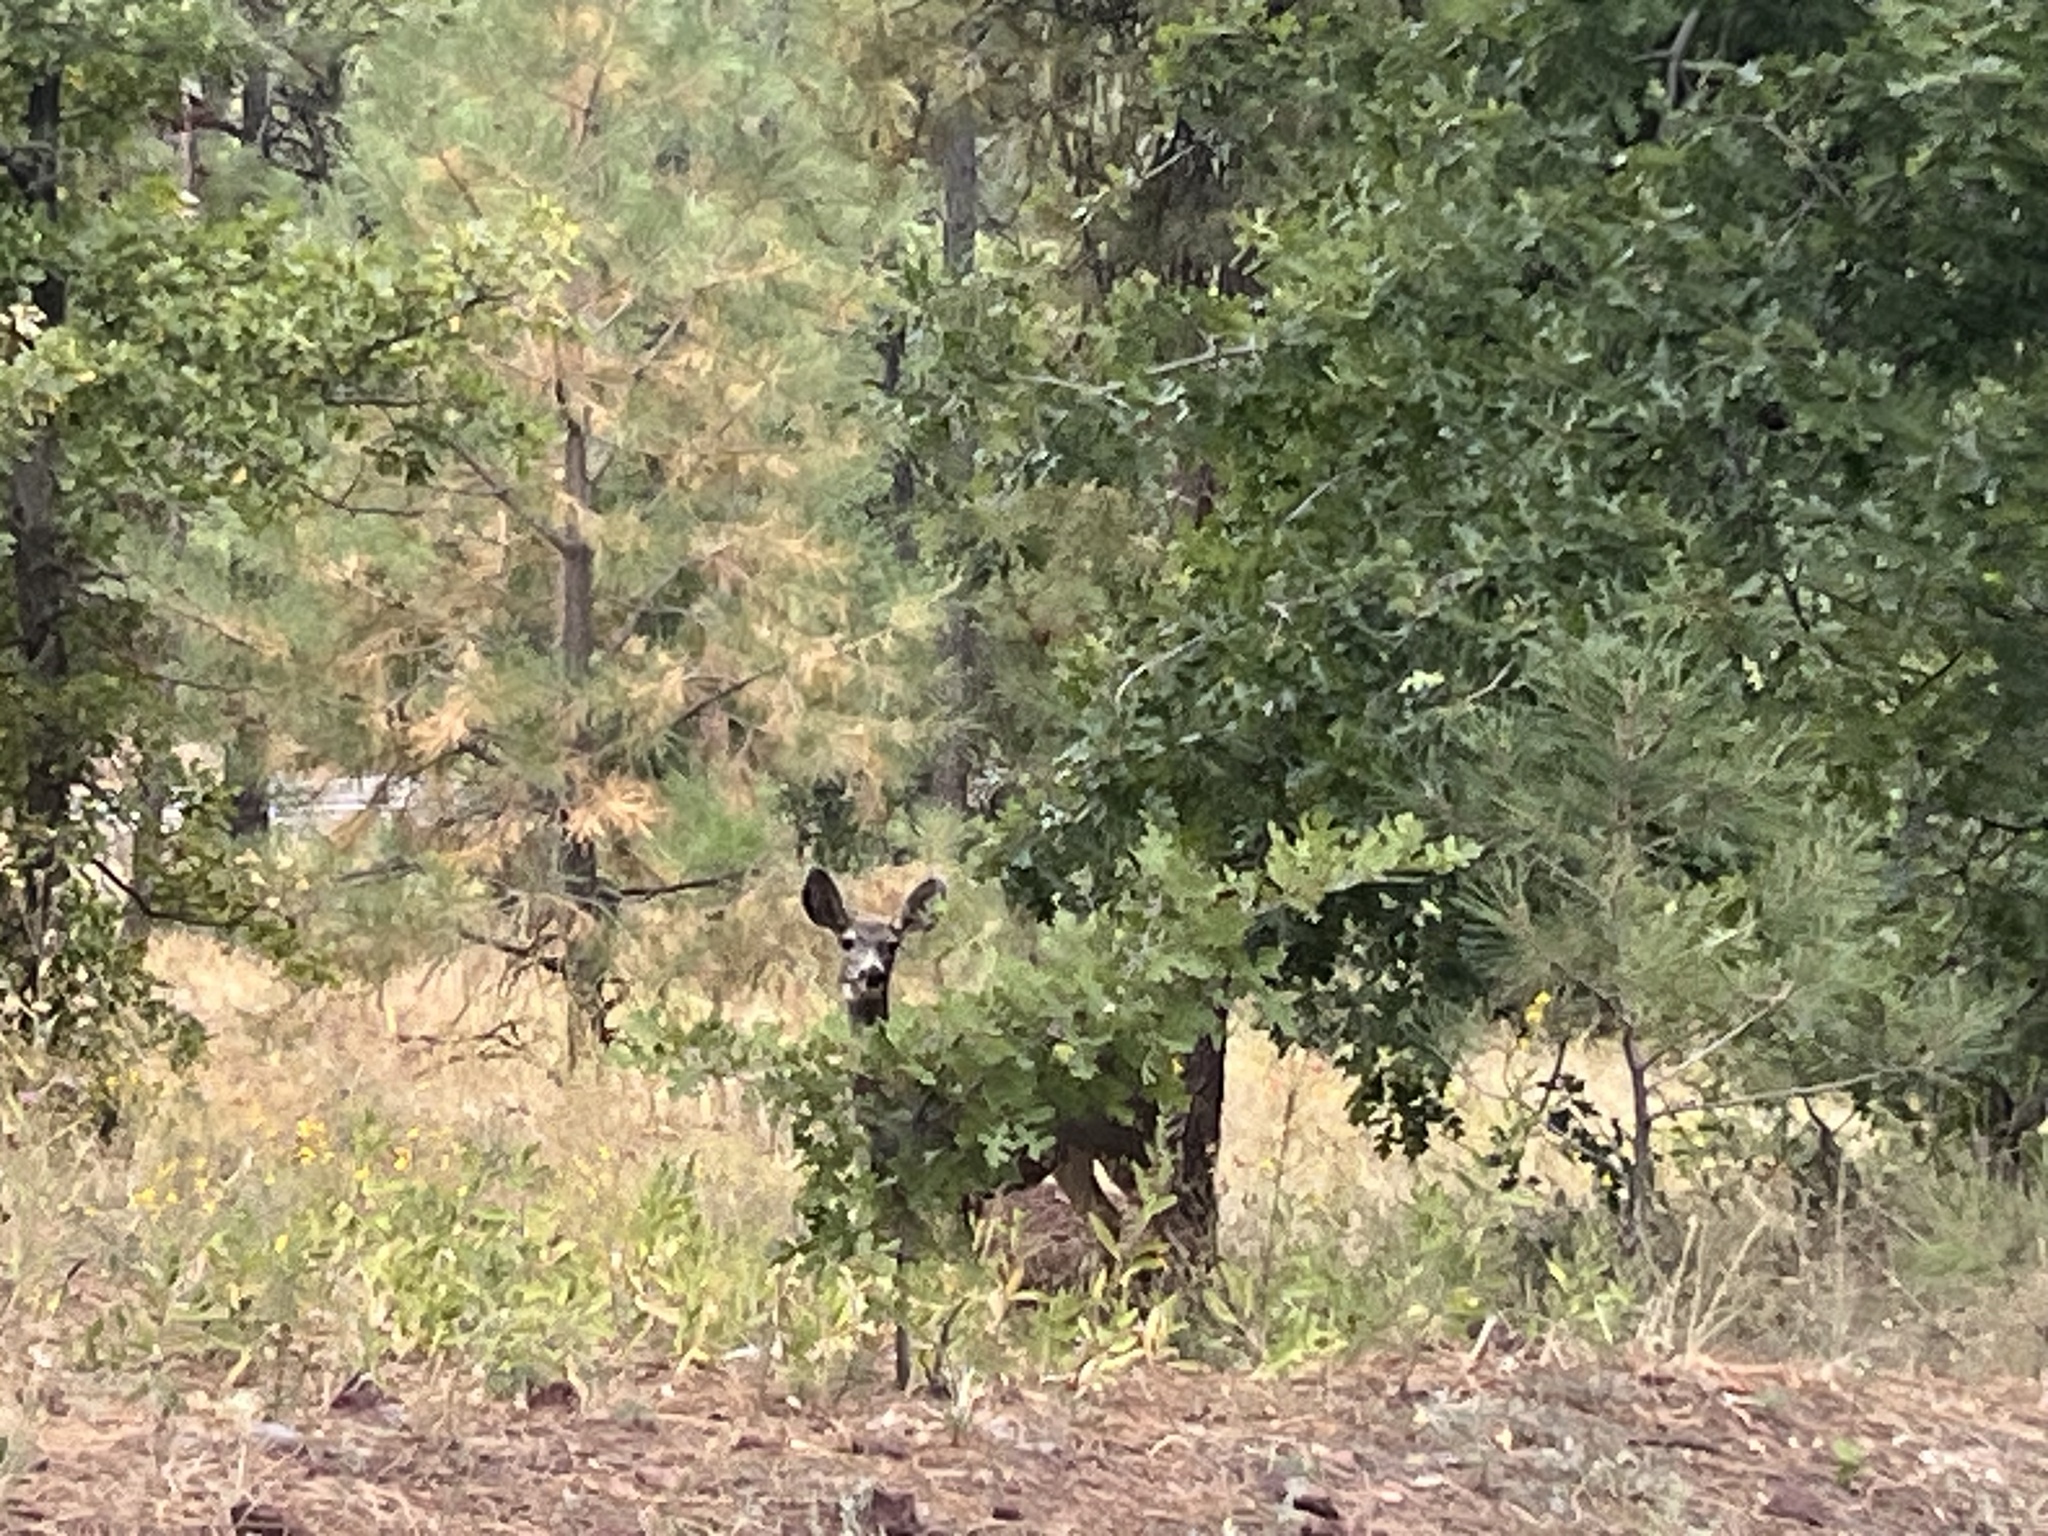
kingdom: Animalia
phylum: Chordata
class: Mammalia
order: Artiodactyla
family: Cervidae
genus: Odocoileus
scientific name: Odocoileus hemionus
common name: Mule deer
